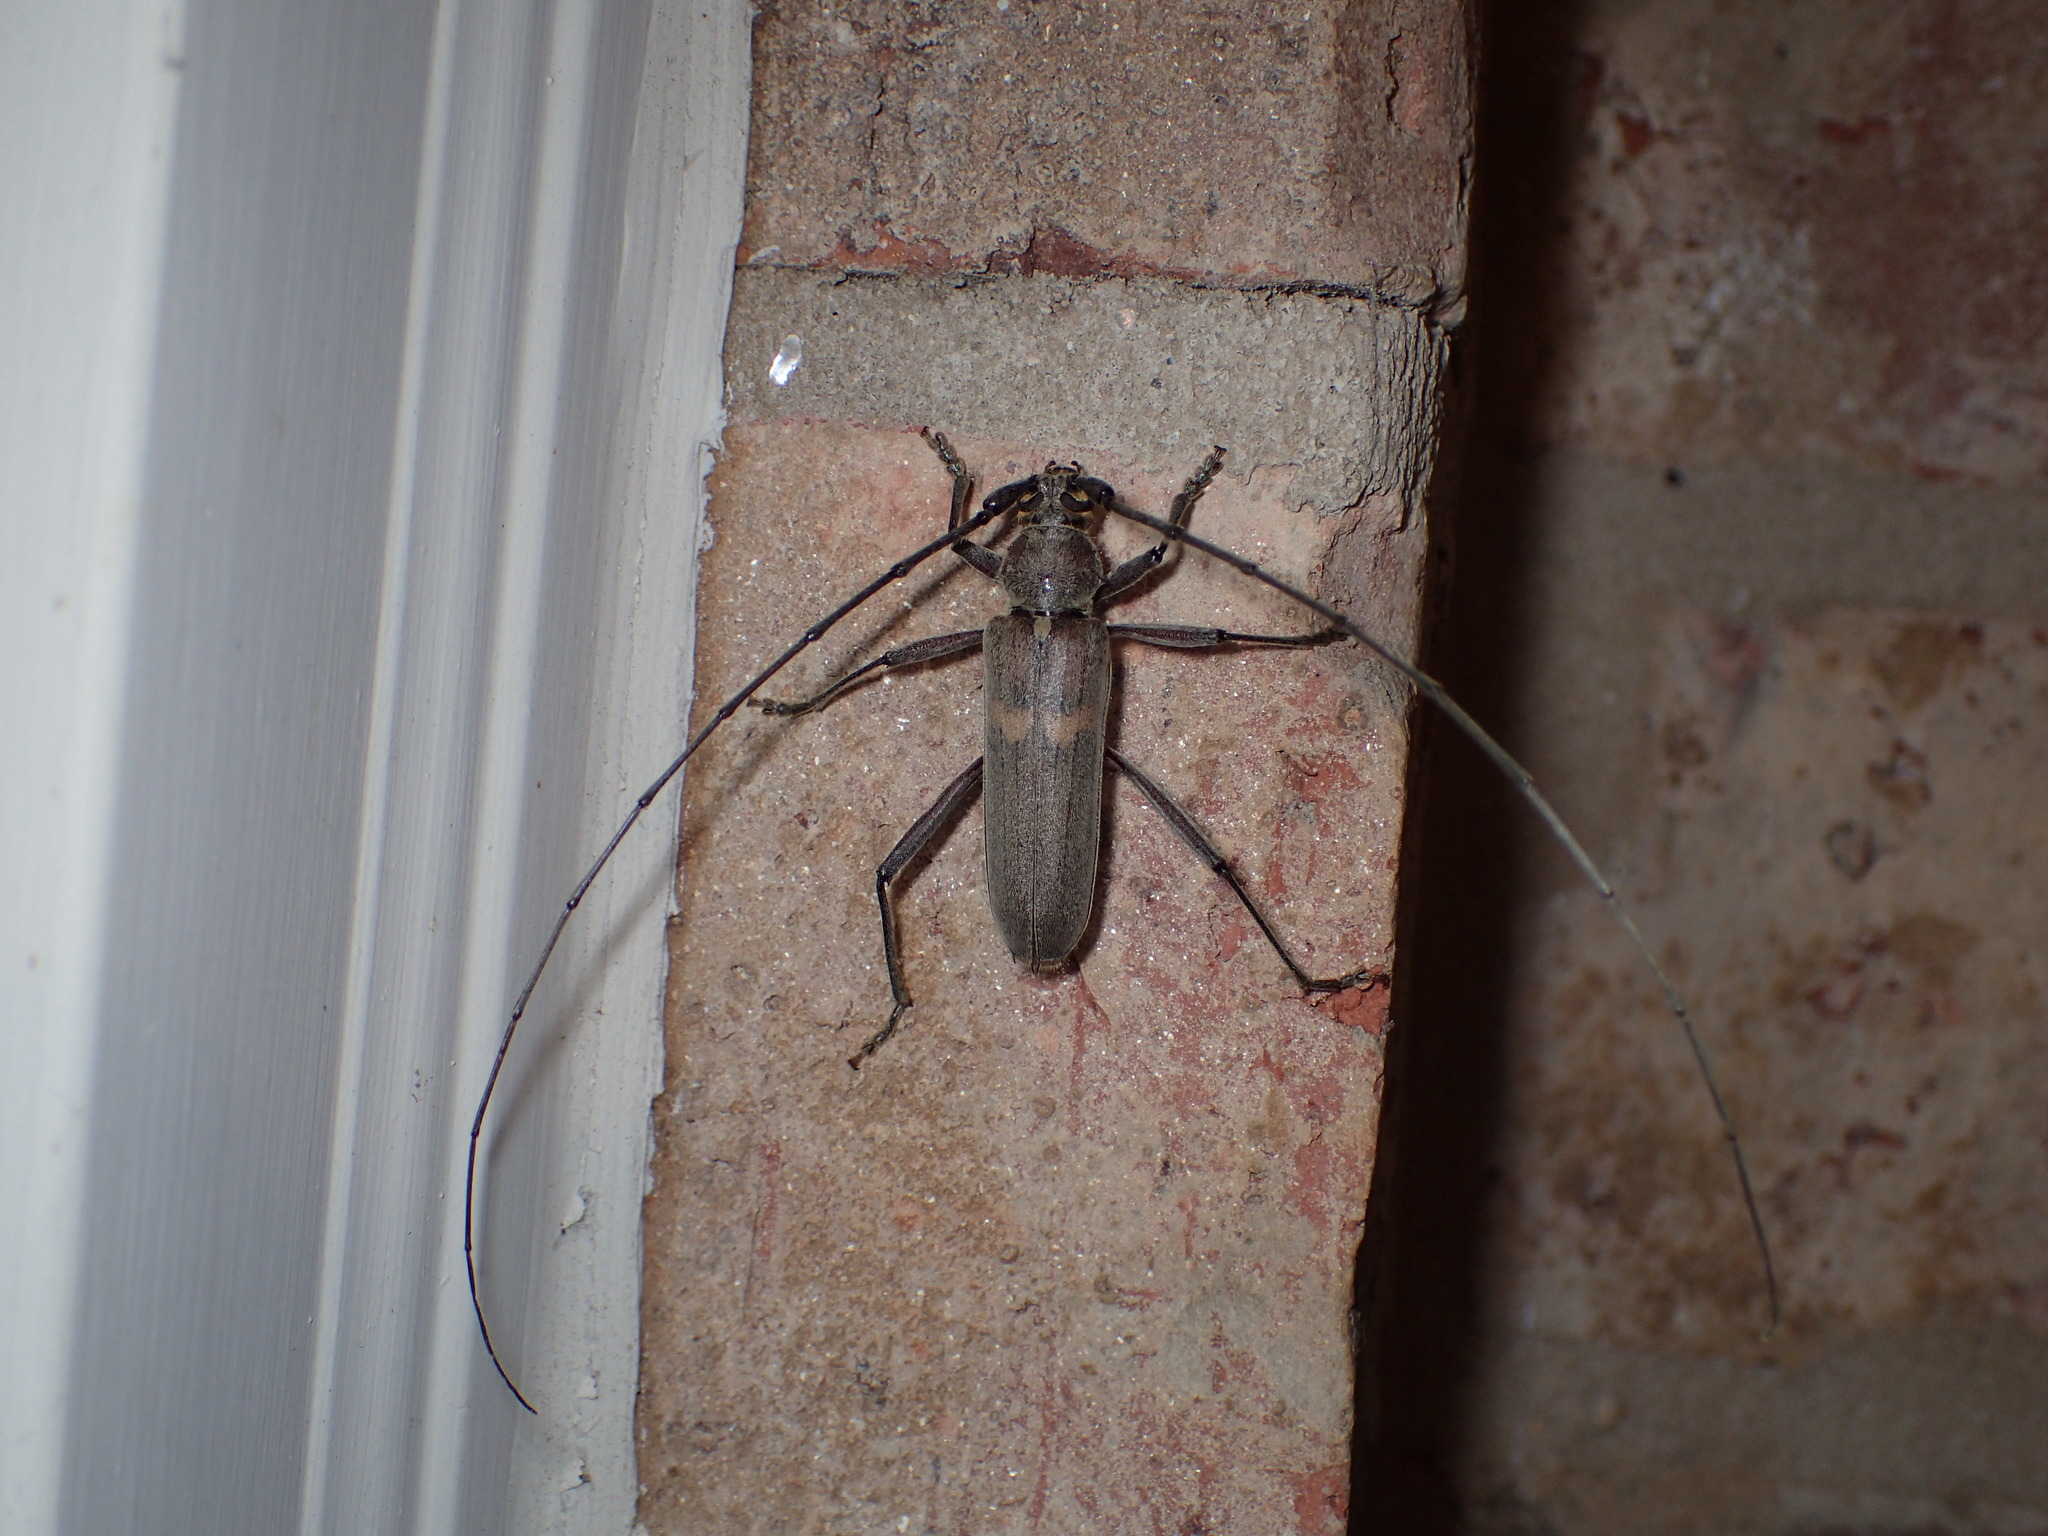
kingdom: Animalia
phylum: Arthropoda
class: Insecta
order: Coleoptera
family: Cerambycidae
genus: Knulliana
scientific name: Knulliana cincta
